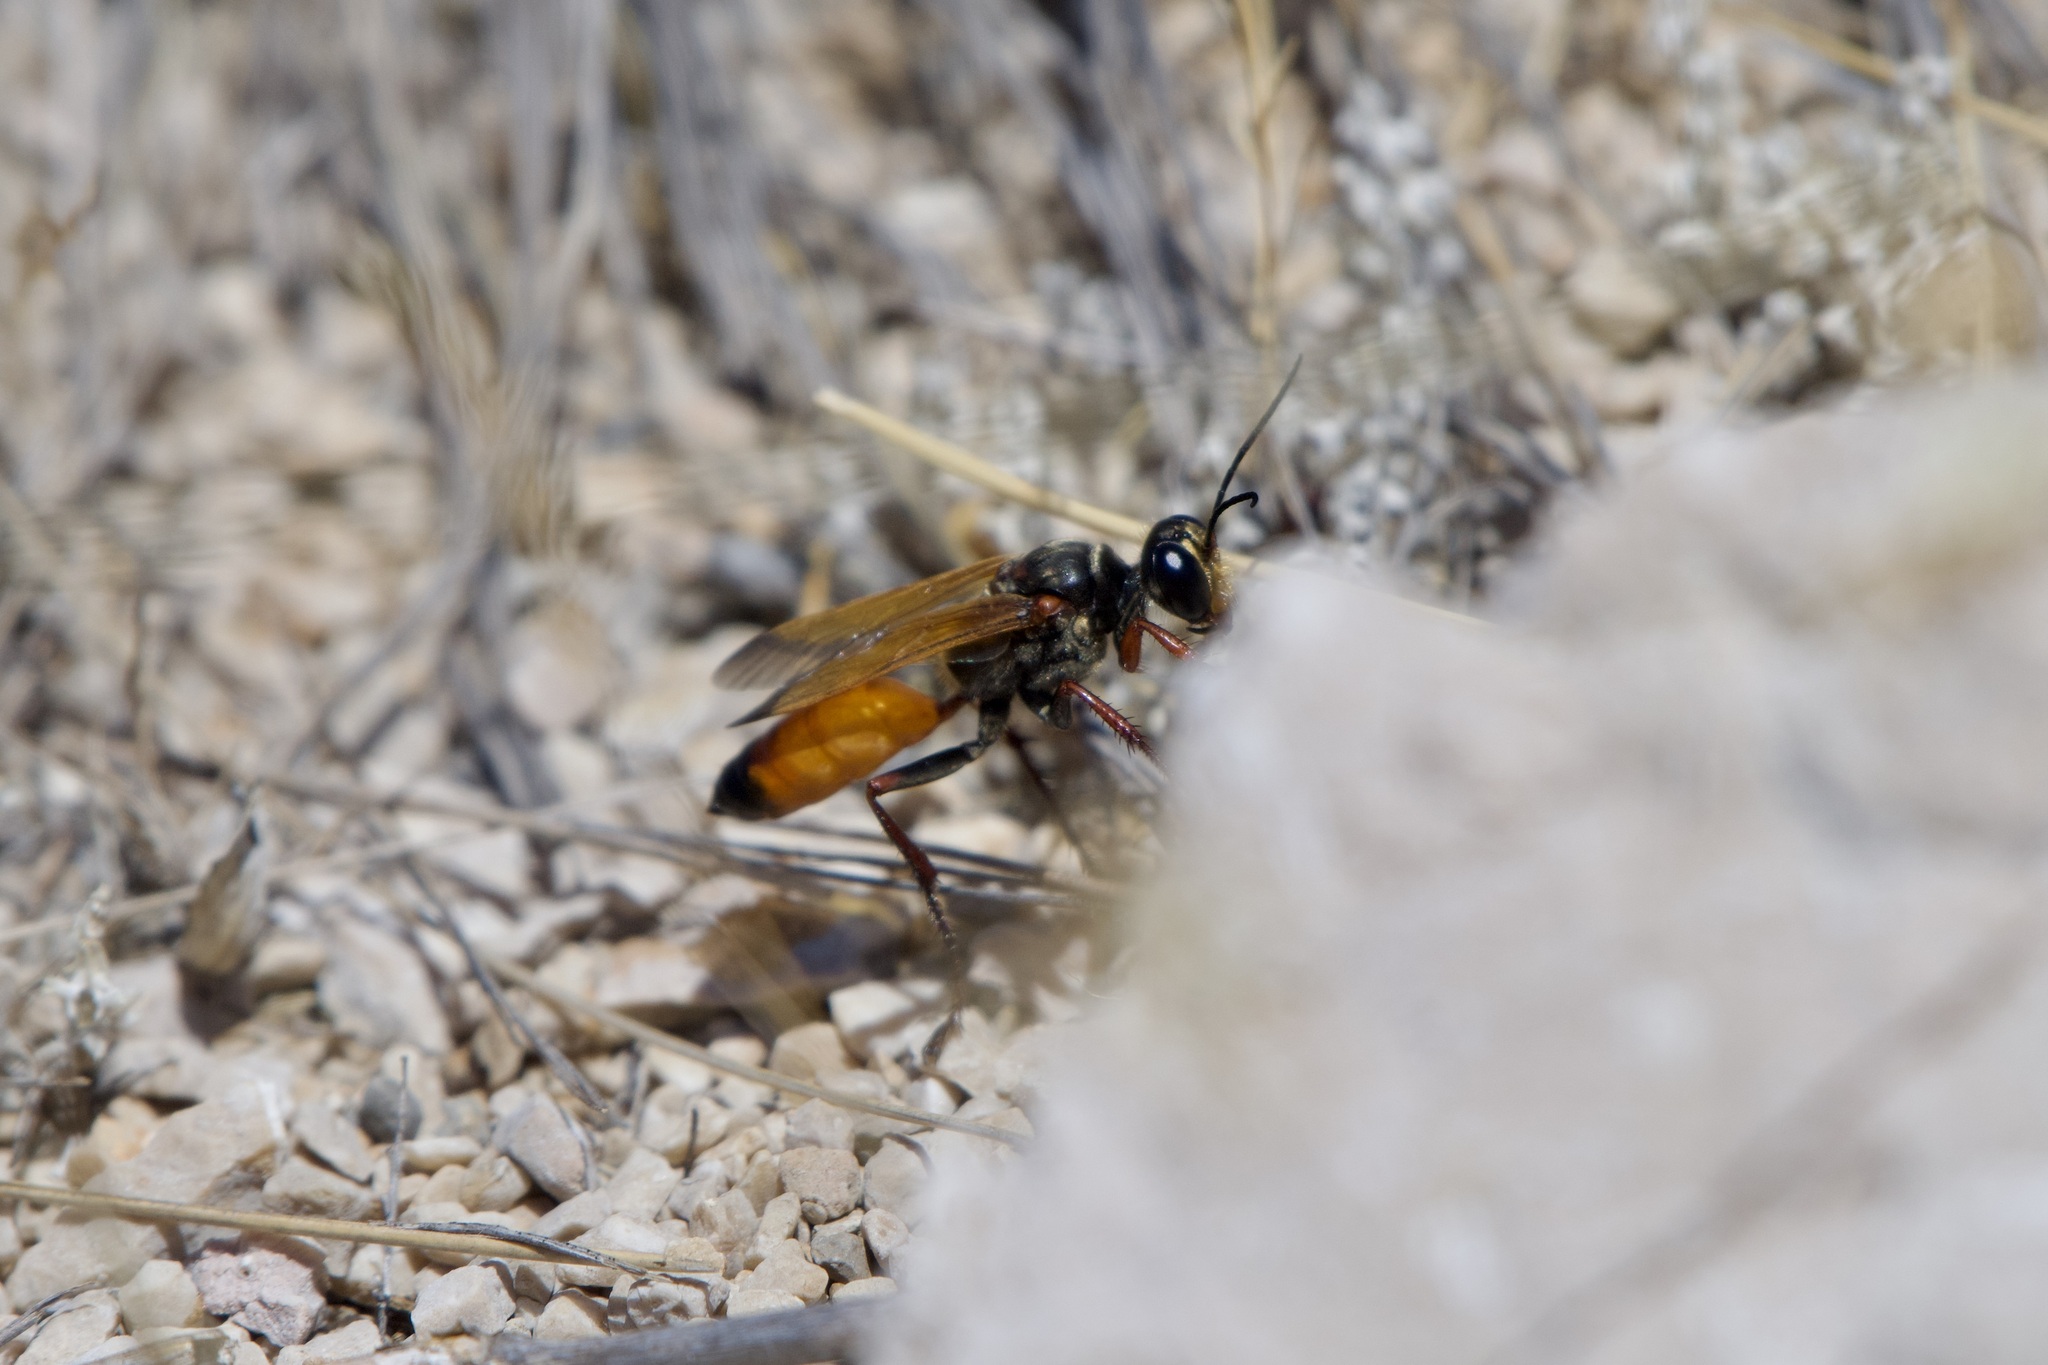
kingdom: Animalia
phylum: Arthropoda
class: Insecta
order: Hymenoptera
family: Sphecidae
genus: Sphex
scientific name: Sphex flavipennis
